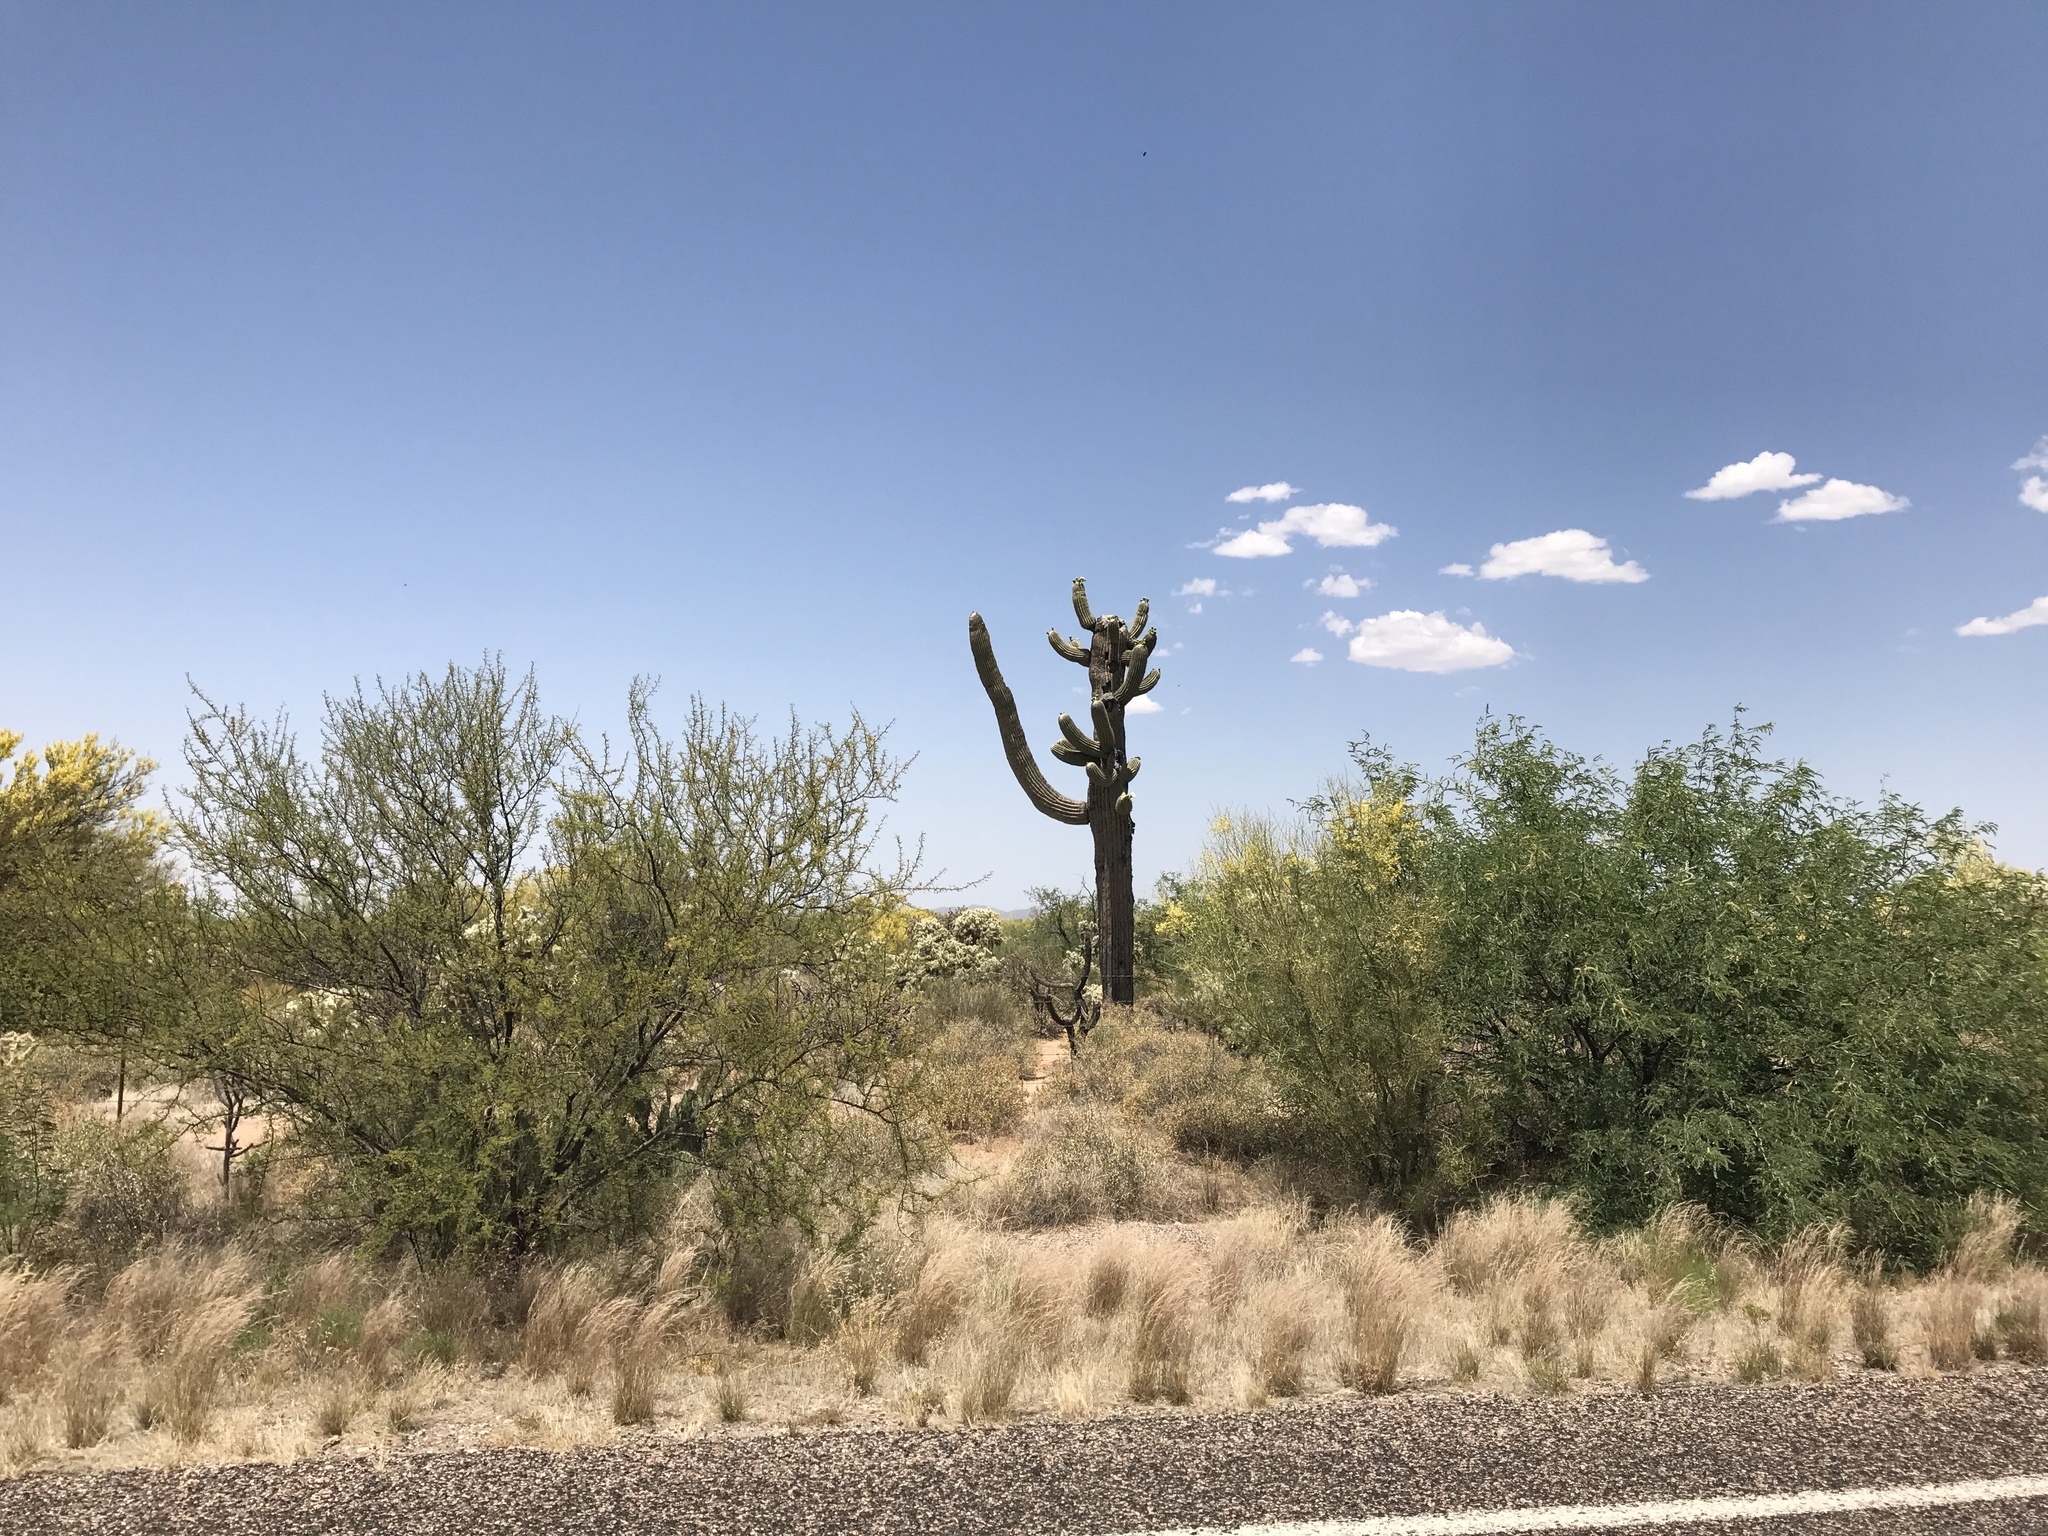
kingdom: Plantae
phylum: Tracheophyta
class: Magnoliopsida
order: Caryophyllales
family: Cactaceae
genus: Carnegiea
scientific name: Carnegiea gigantea
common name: Saguaro
